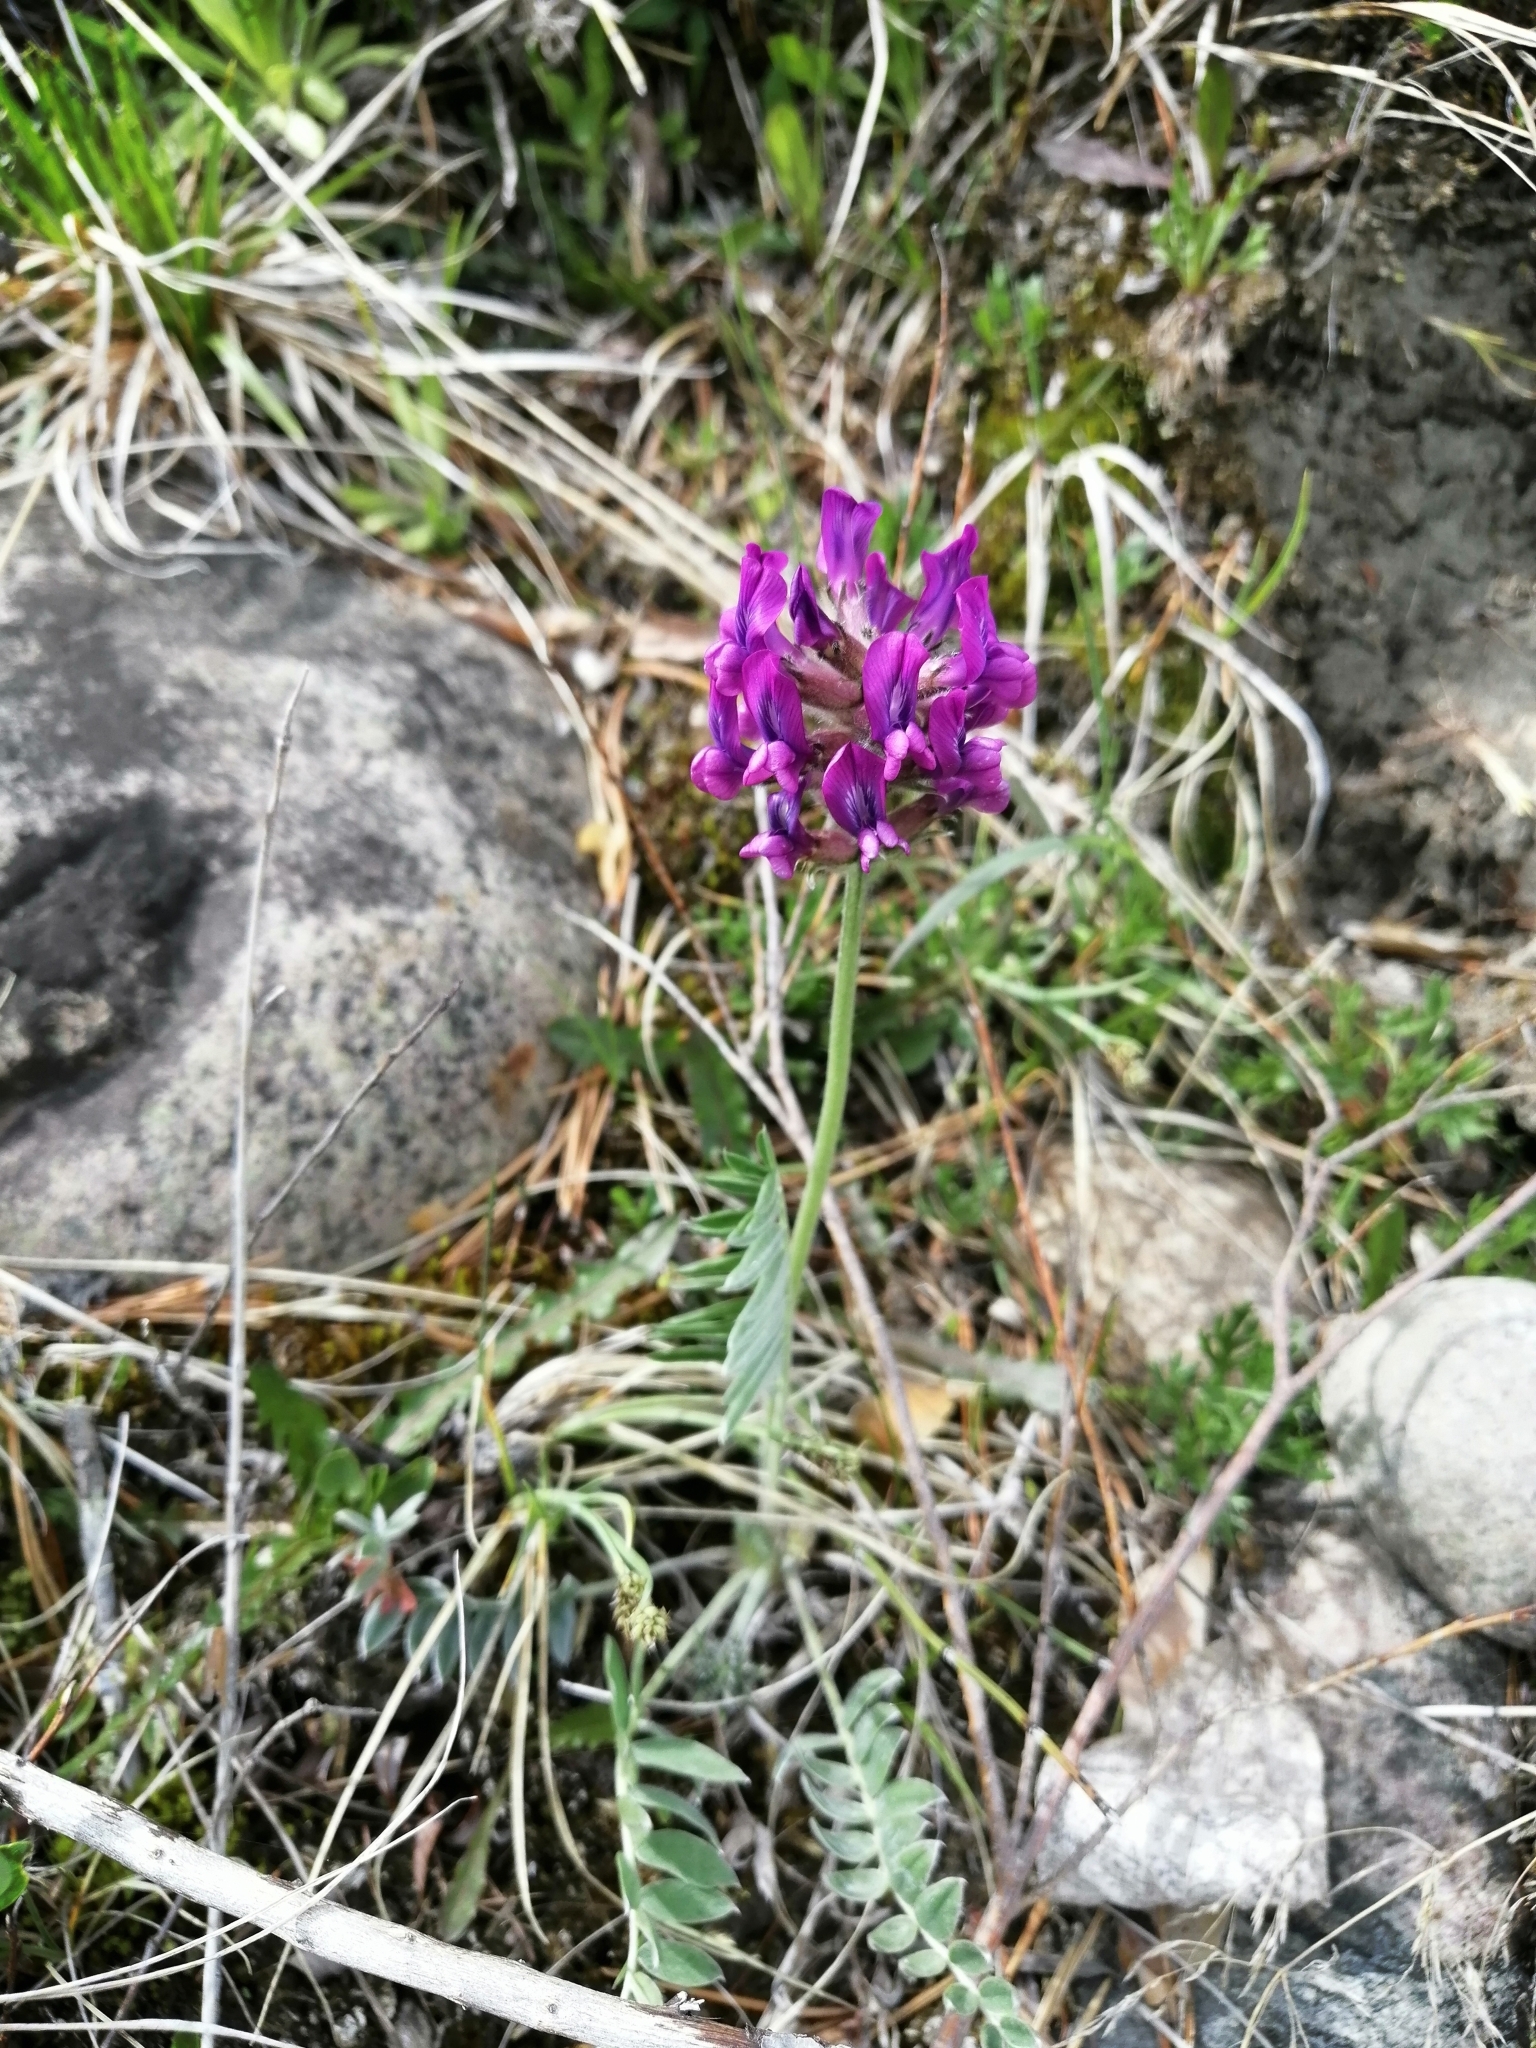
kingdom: Plantae
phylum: Tracheophyta
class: Magnoliopsida
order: Fabales
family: Fabaceae
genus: Oxytropis
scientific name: Oxytropis strobilacea
